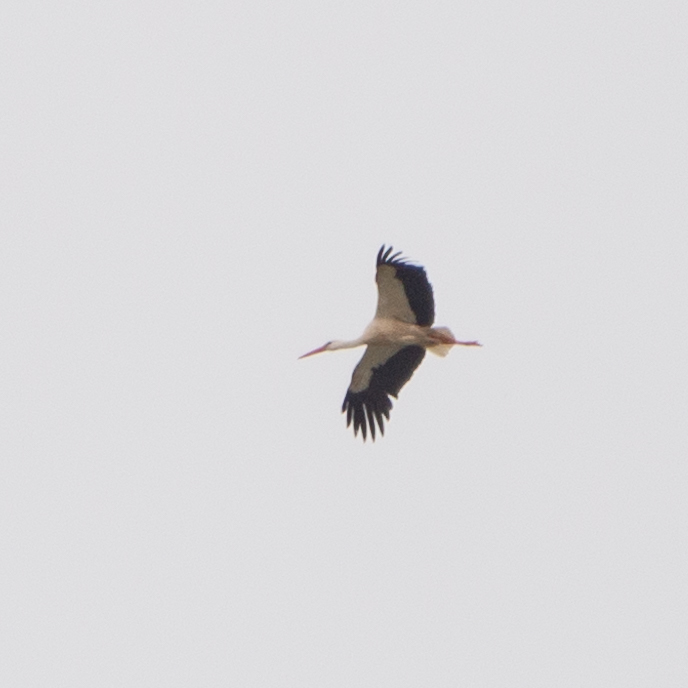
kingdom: Animalia
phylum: Chordata
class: Aves
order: Ciconiiformes
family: Ciconiidae
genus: Ciconia
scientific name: Ciconia ciconia
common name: White stork
